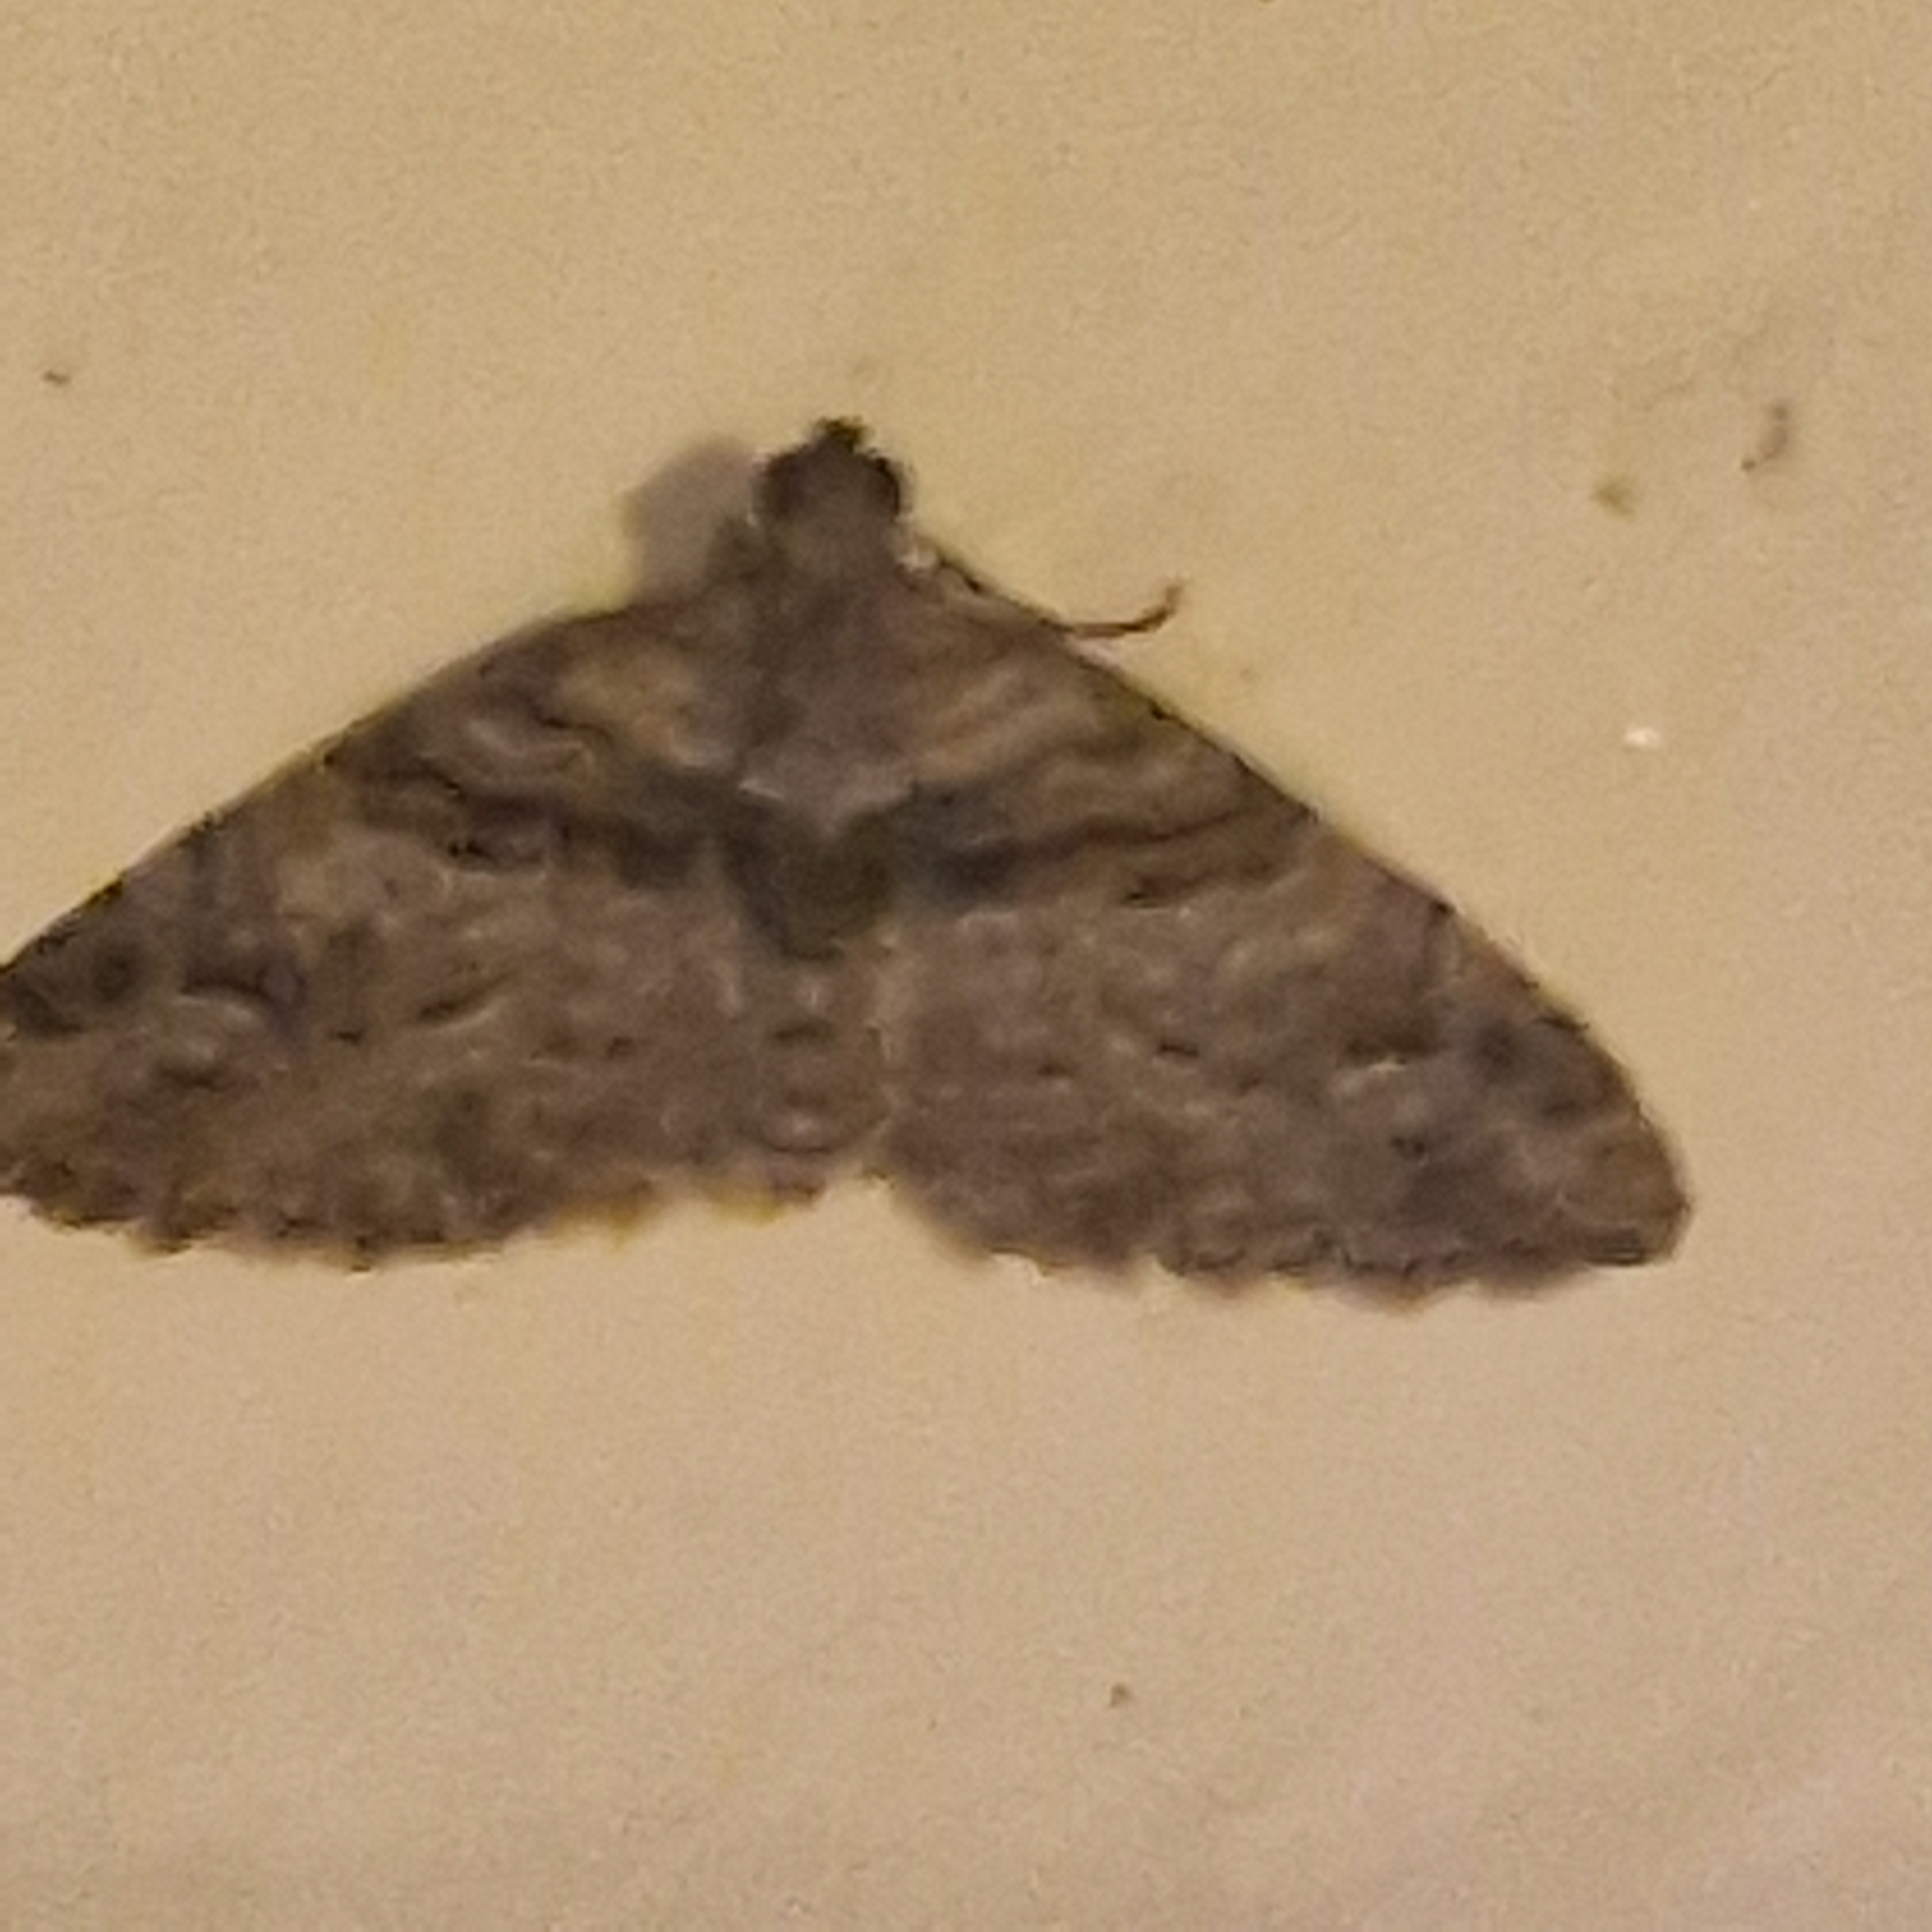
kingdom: Animalia
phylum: Arthropoda
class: Insecta
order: Lepidoptera
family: Geometridae
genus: Phrissogonus
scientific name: Phrissogonus laticostata
